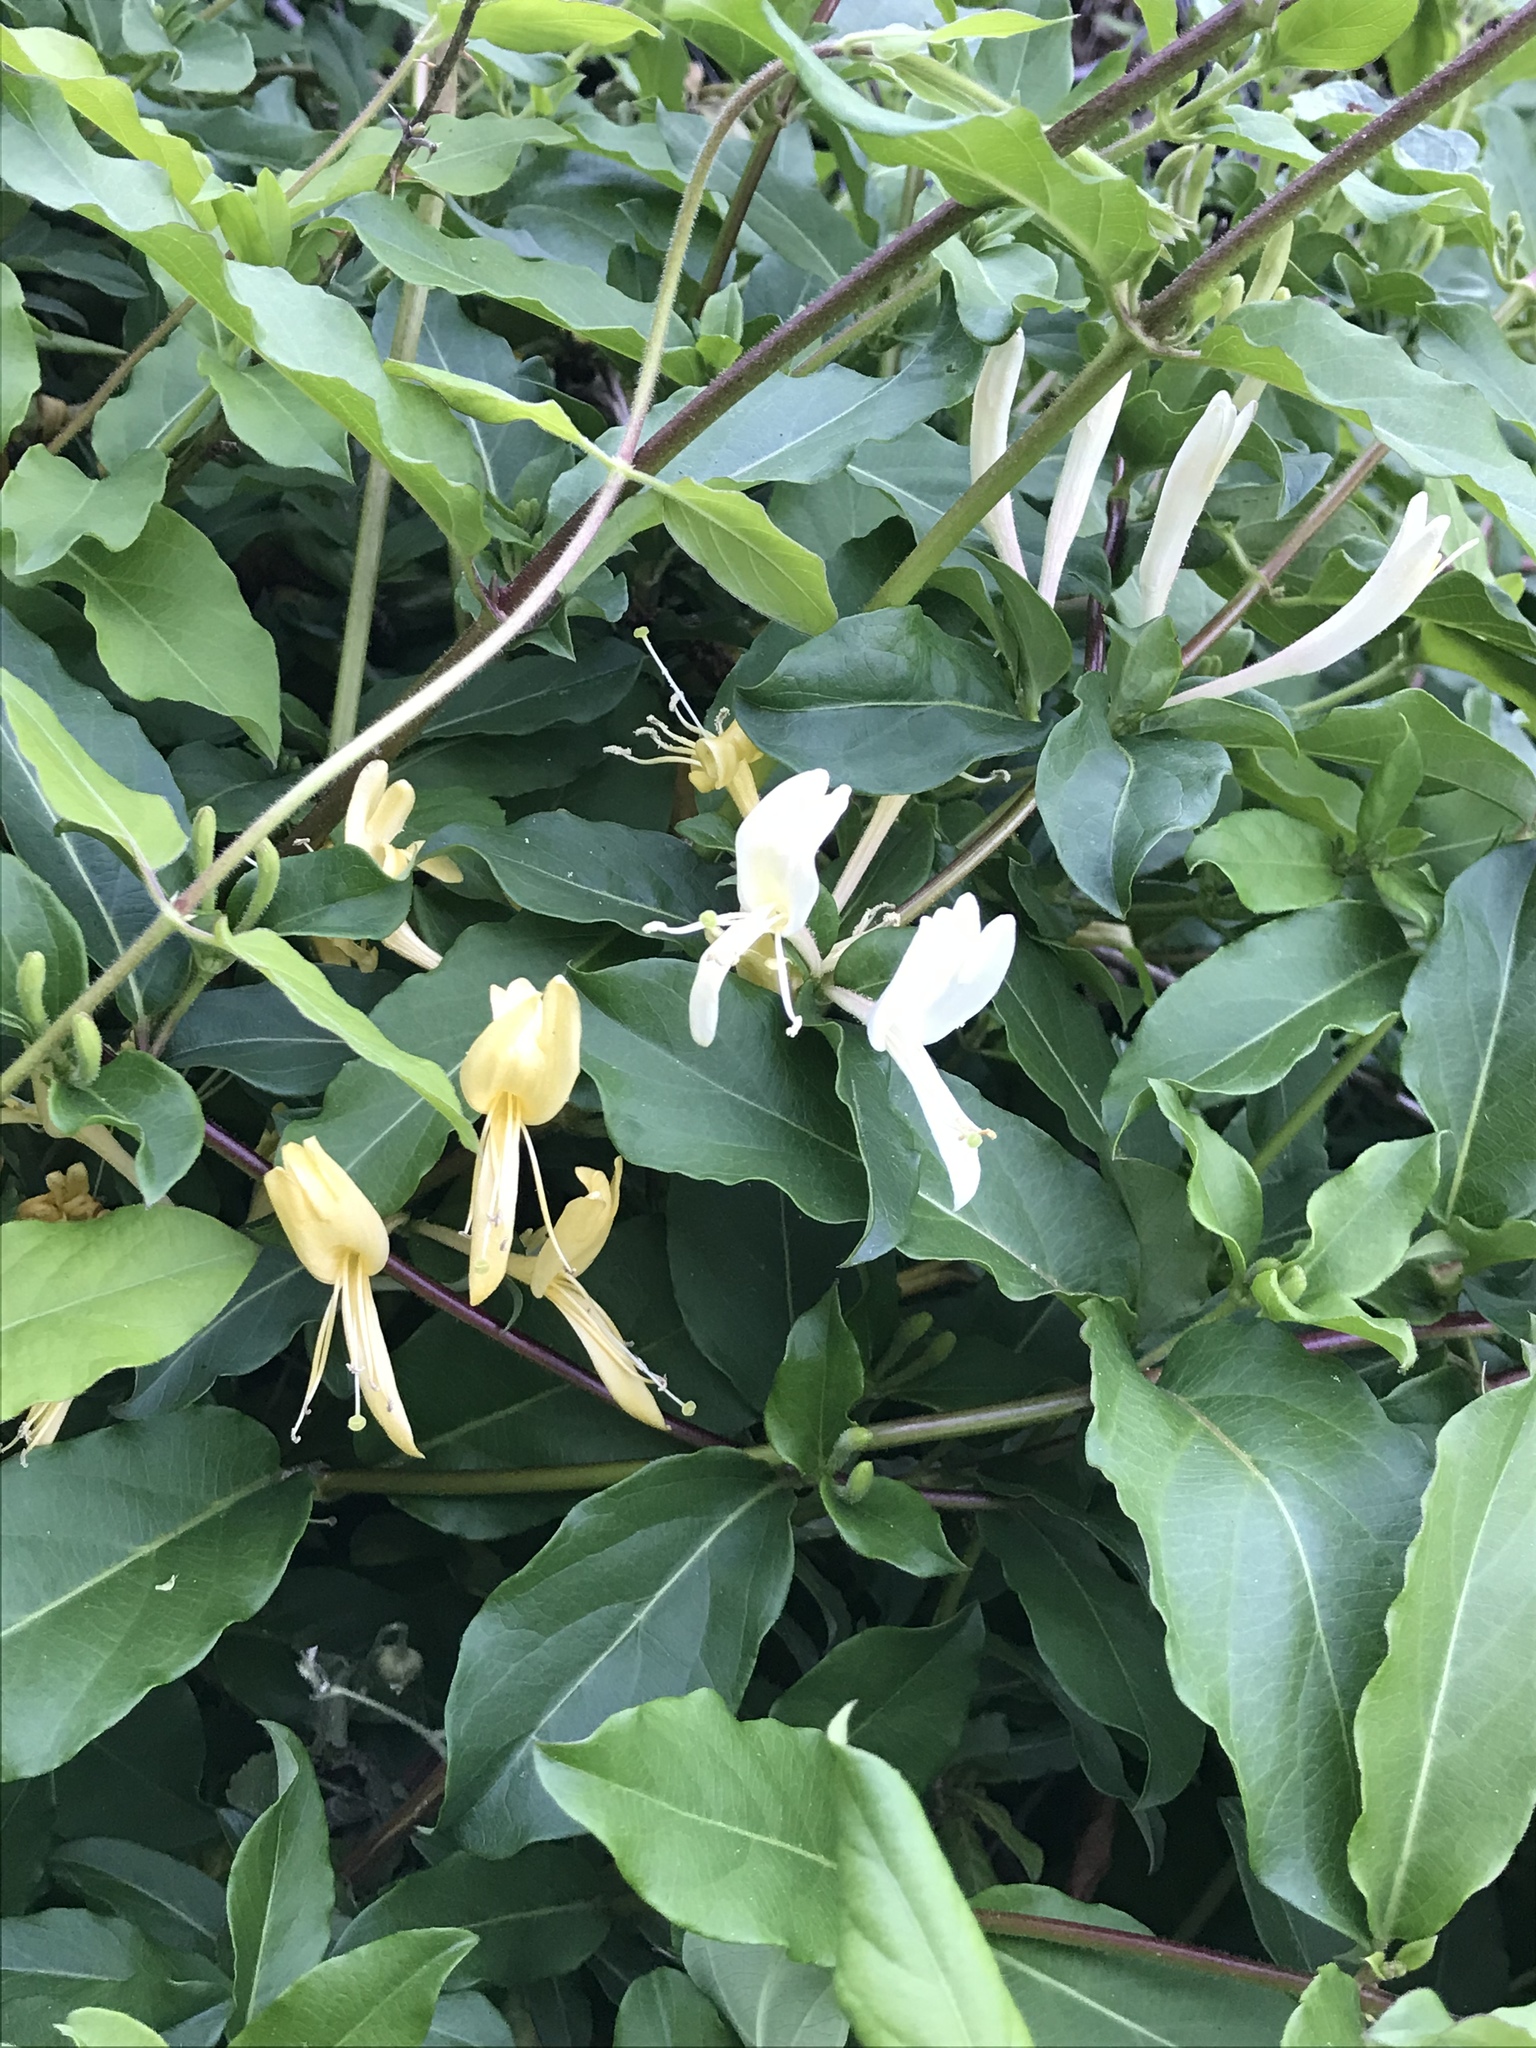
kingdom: Plantae
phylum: Tracheophyta
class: Magnoliopsida
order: Dipsacales
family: Caprifoliaceae
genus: Lonicera
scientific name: Lonicera japonica
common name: Japanese honeysuckle
